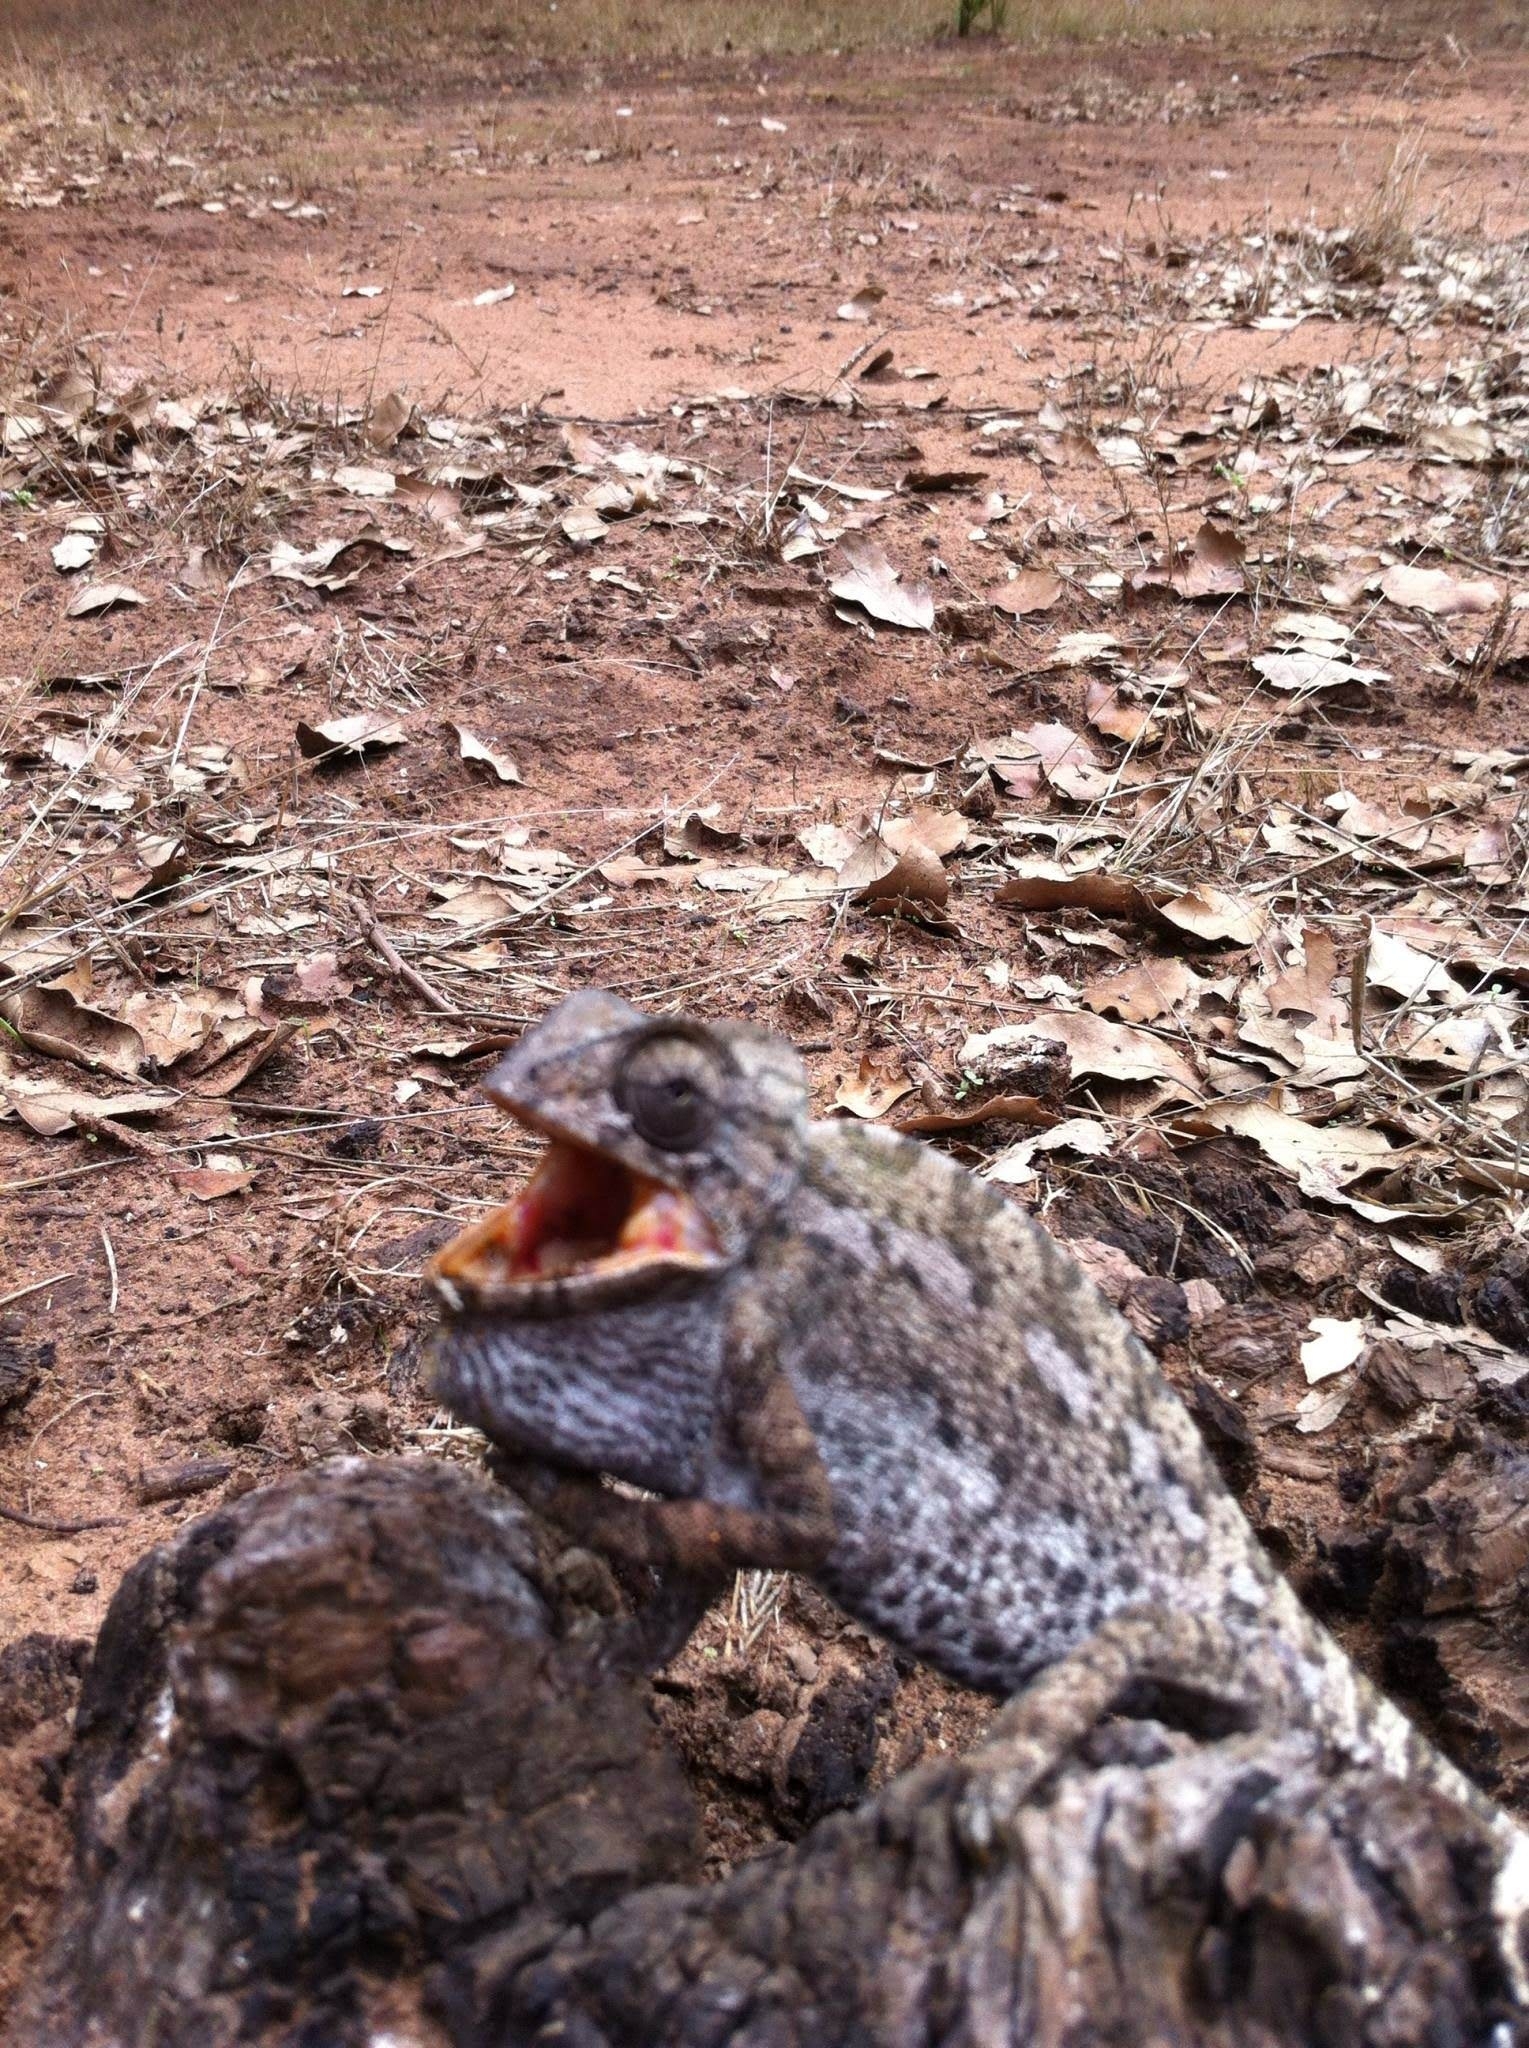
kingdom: Animalia
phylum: Chordata
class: Squamata
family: Chamaeleonidae
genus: Chamaeleo
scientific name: Chamaeleo chamaeleon
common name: Mediterranean chameleon
